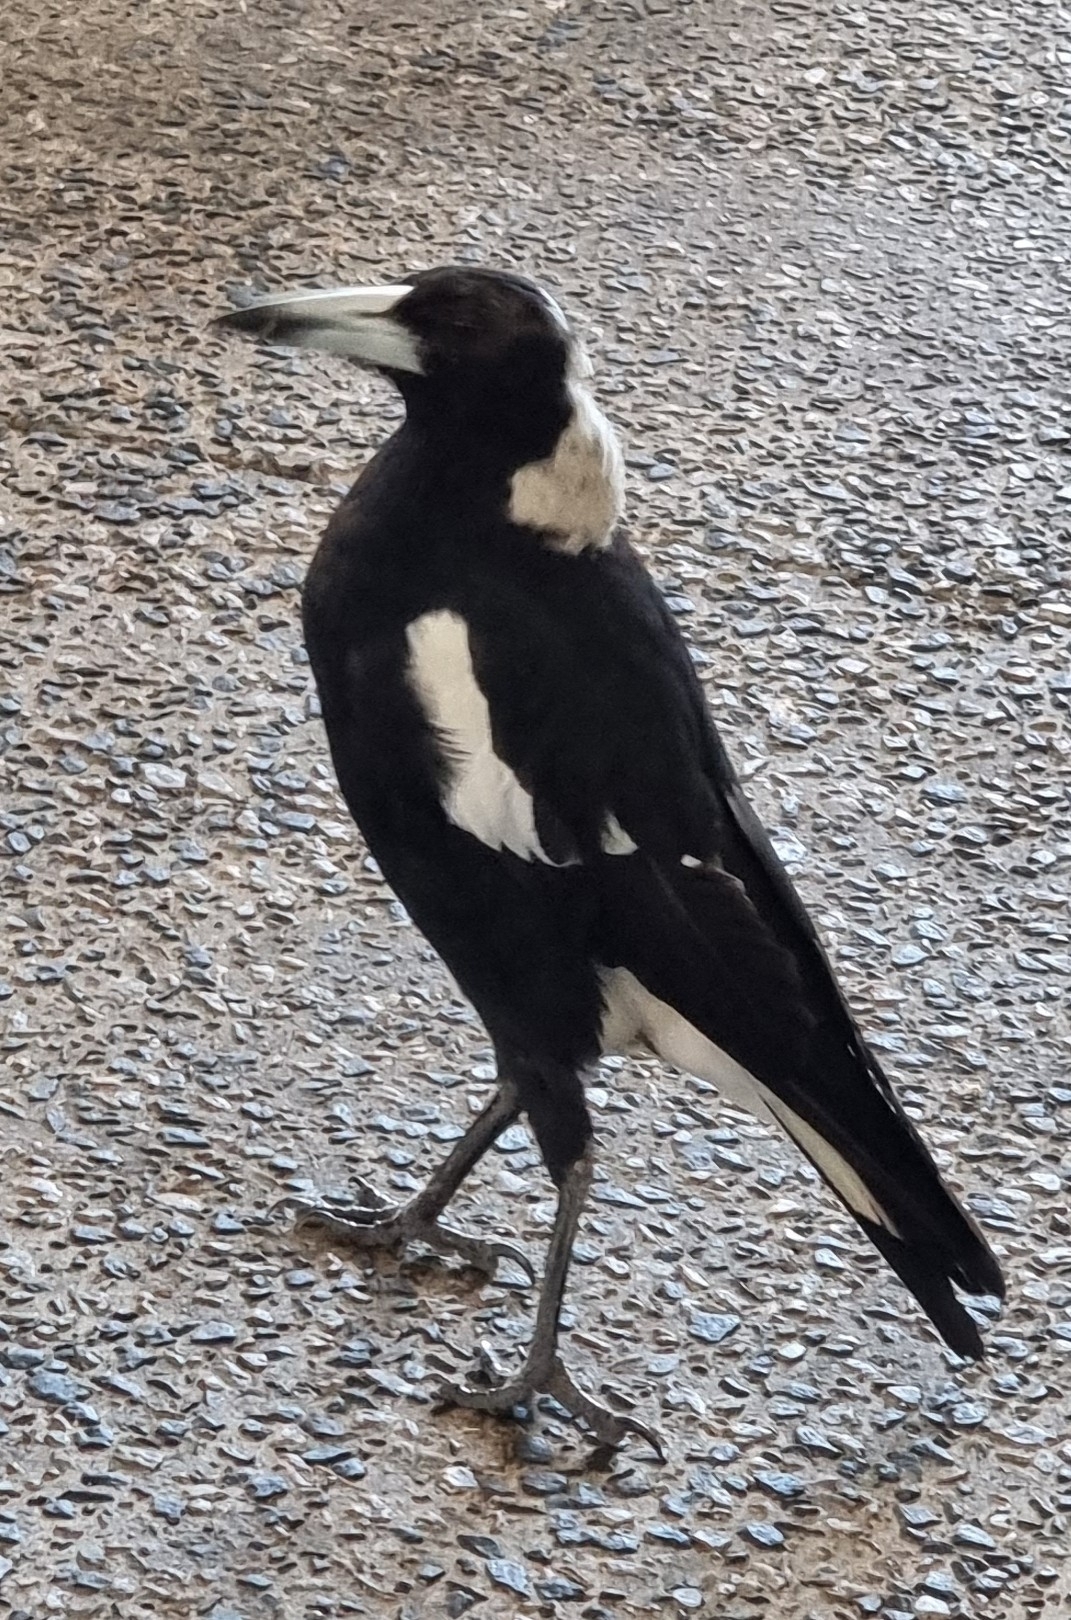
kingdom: Animalia
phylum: Chordata
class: Aves
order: Passeriformes
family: Cracticidae
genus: Gymnorhina
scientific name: Gymnorhina tibicen
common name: Australian magpie
